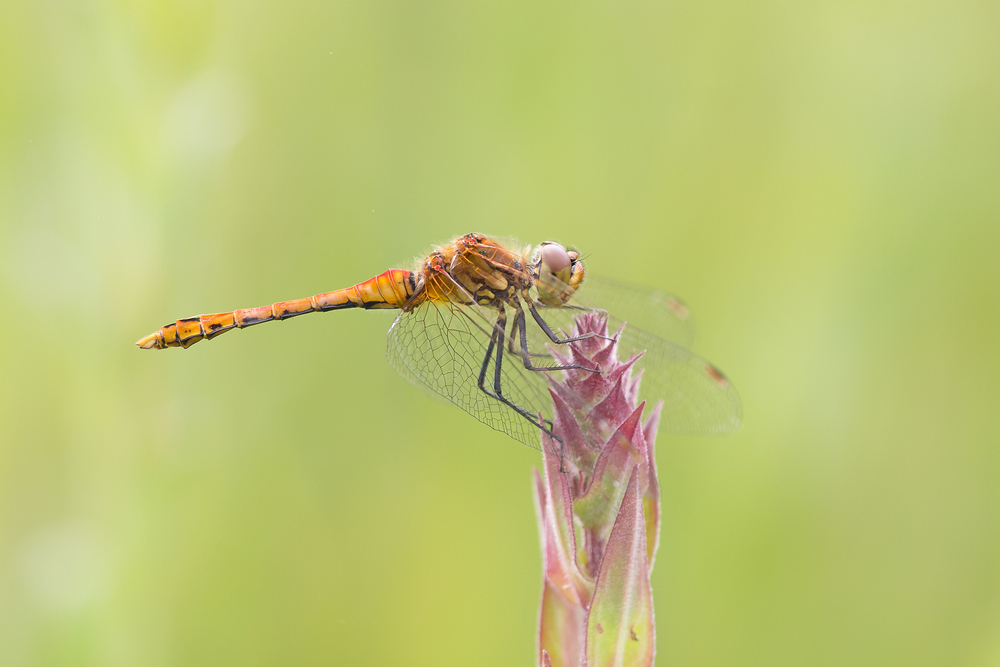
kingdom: Animalia
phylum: Arthropoda
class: Insecta
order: Odonata
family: Libellulidae
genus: Sympetrum
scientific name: Sympetrum sanguineum
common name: Ruddy darter
